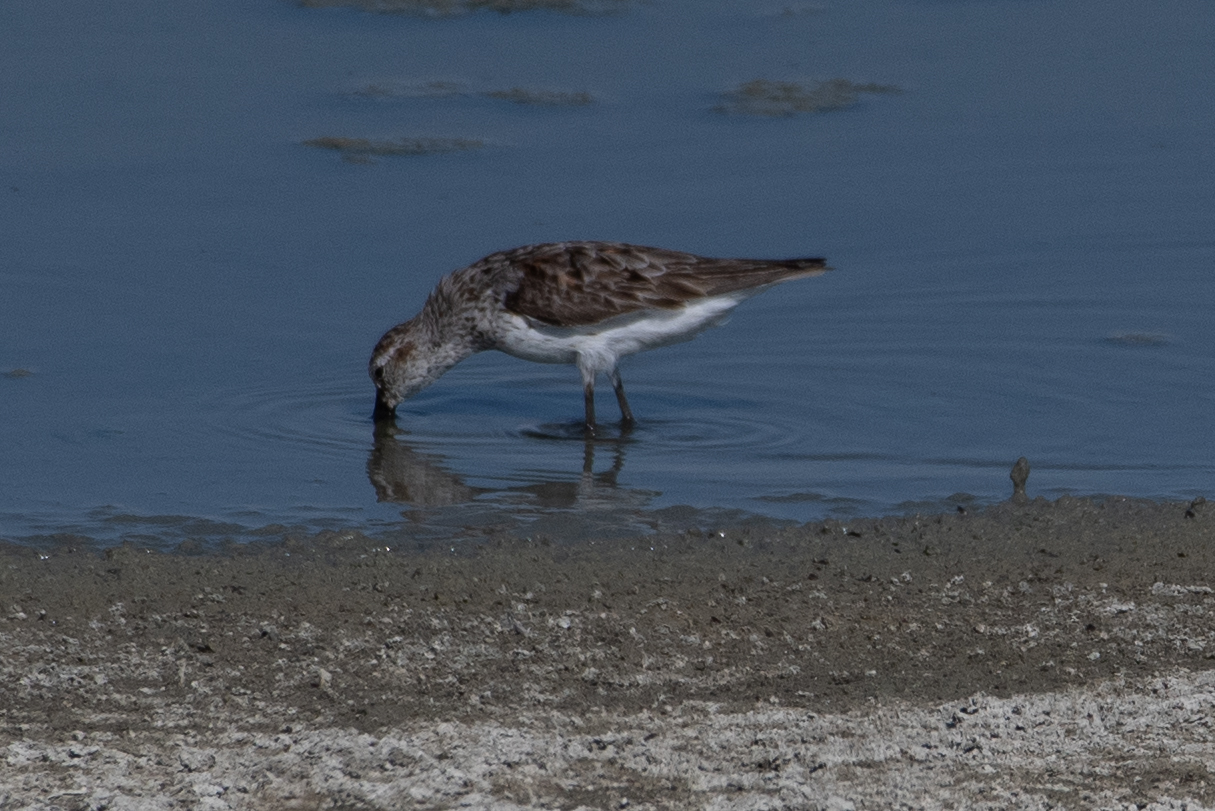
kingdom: Animalia
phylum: Chordata
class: Aves
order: Charadriiformes
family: Scolopacidae
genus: Calidris
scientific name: Calidris mauri
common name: Western sandpiper
